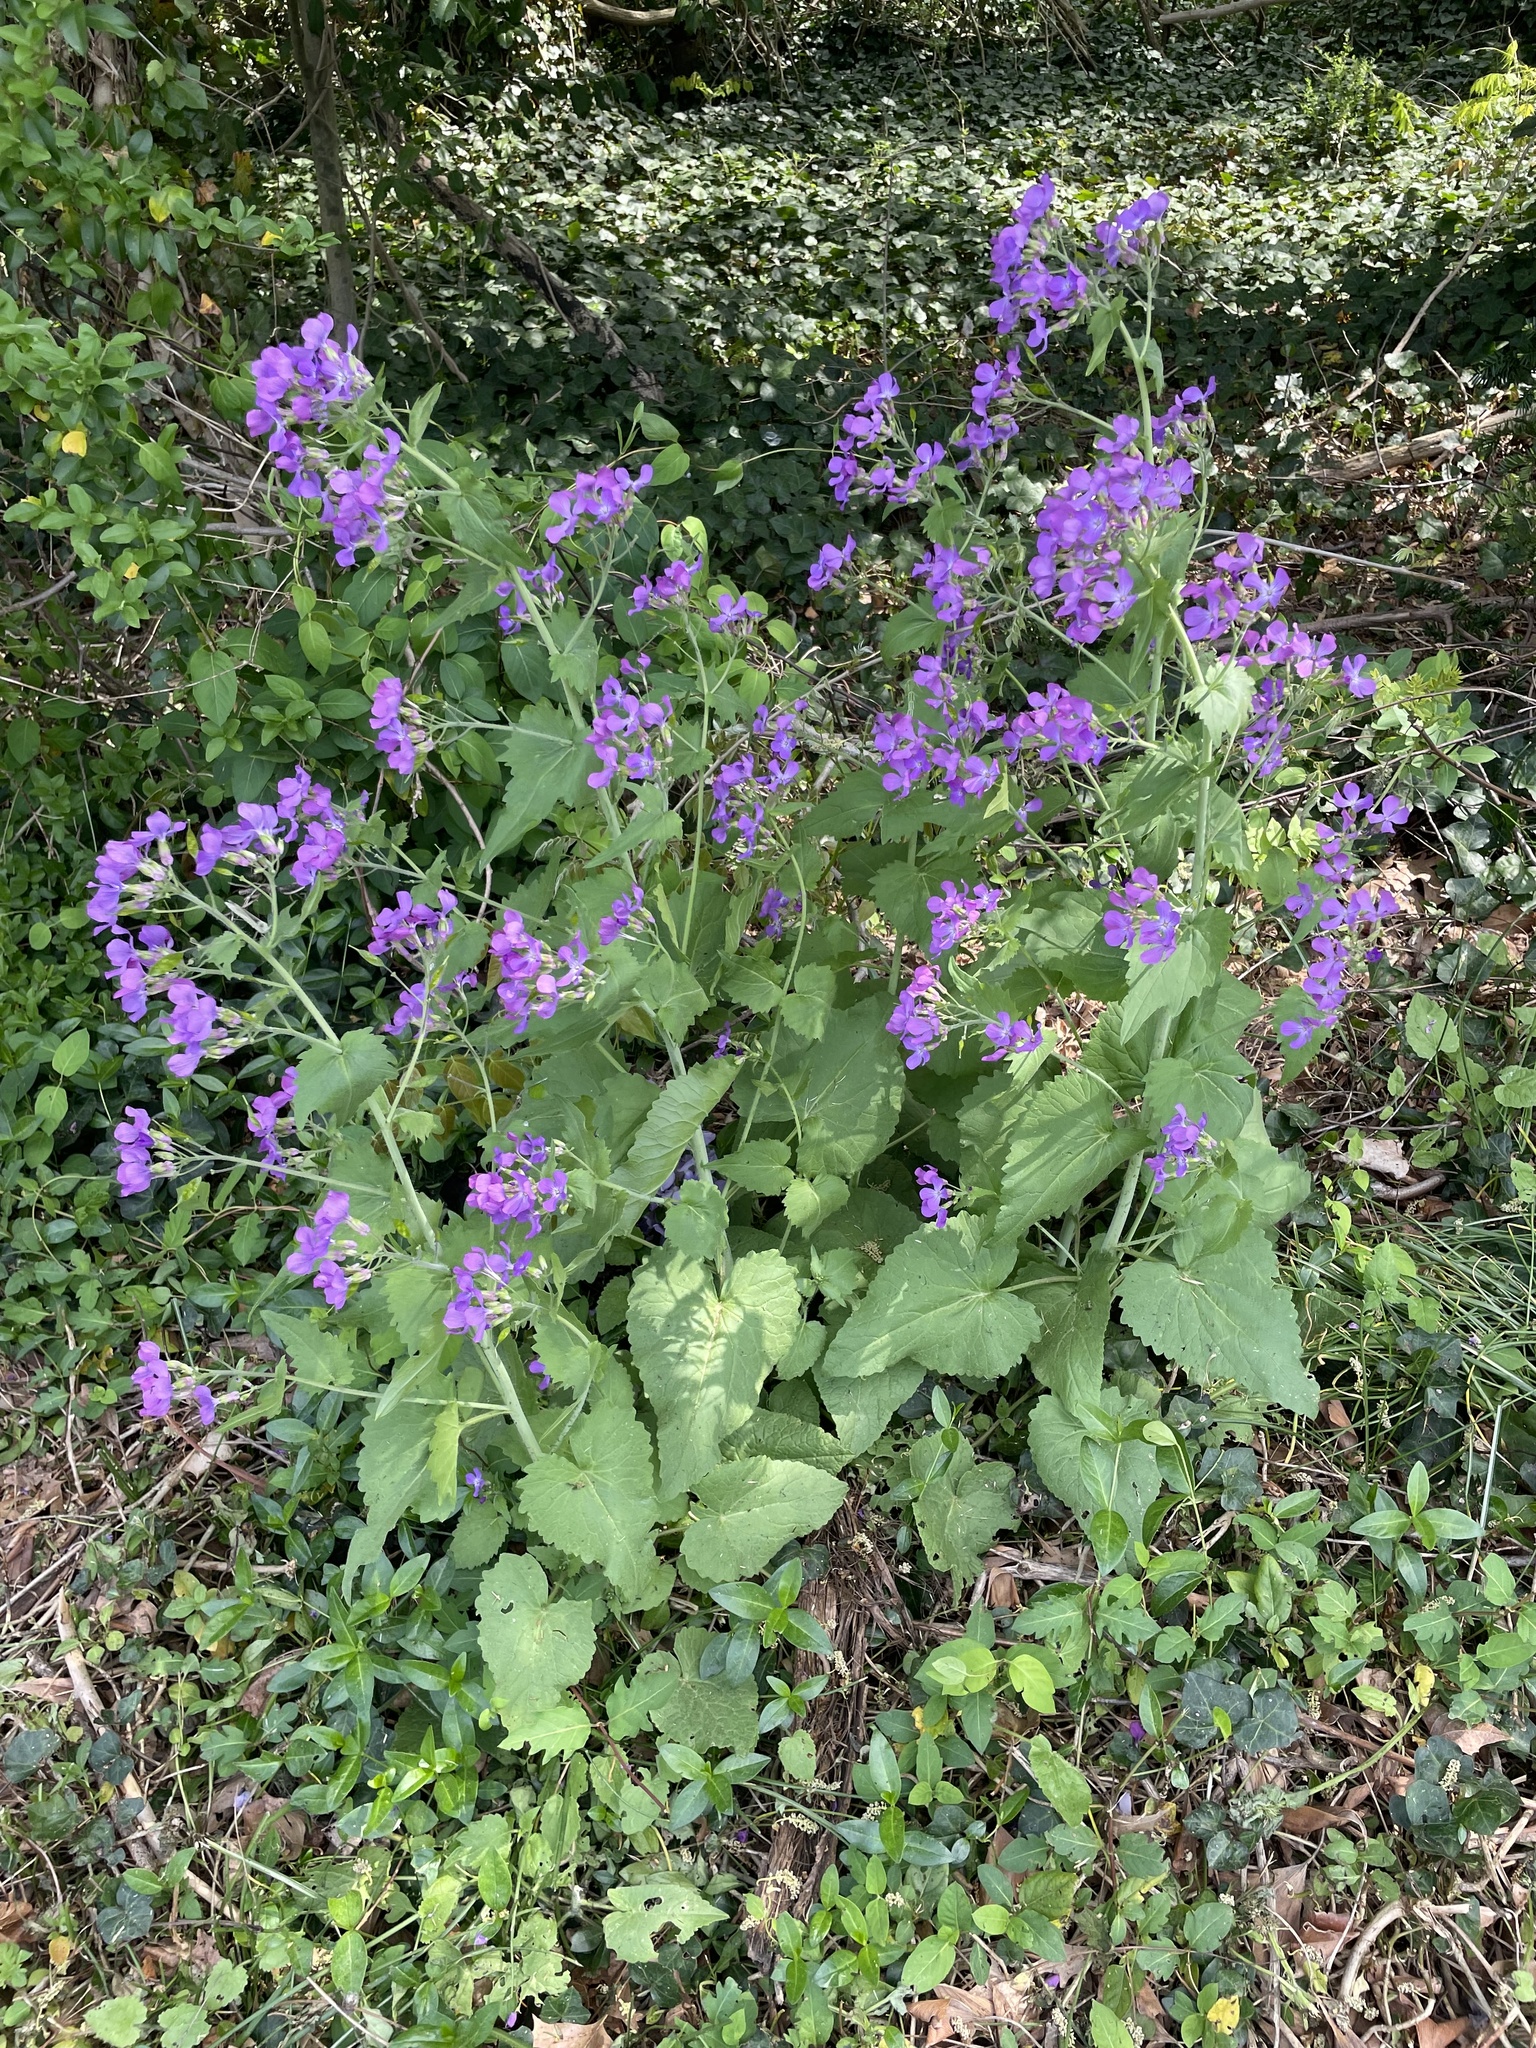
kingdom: Plantae
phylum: Tracheophyta
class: Magnoliopsida
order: Brassicales
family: Brassicaceae
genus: Lunaria
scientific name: Lunaria annua
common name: Honesty
